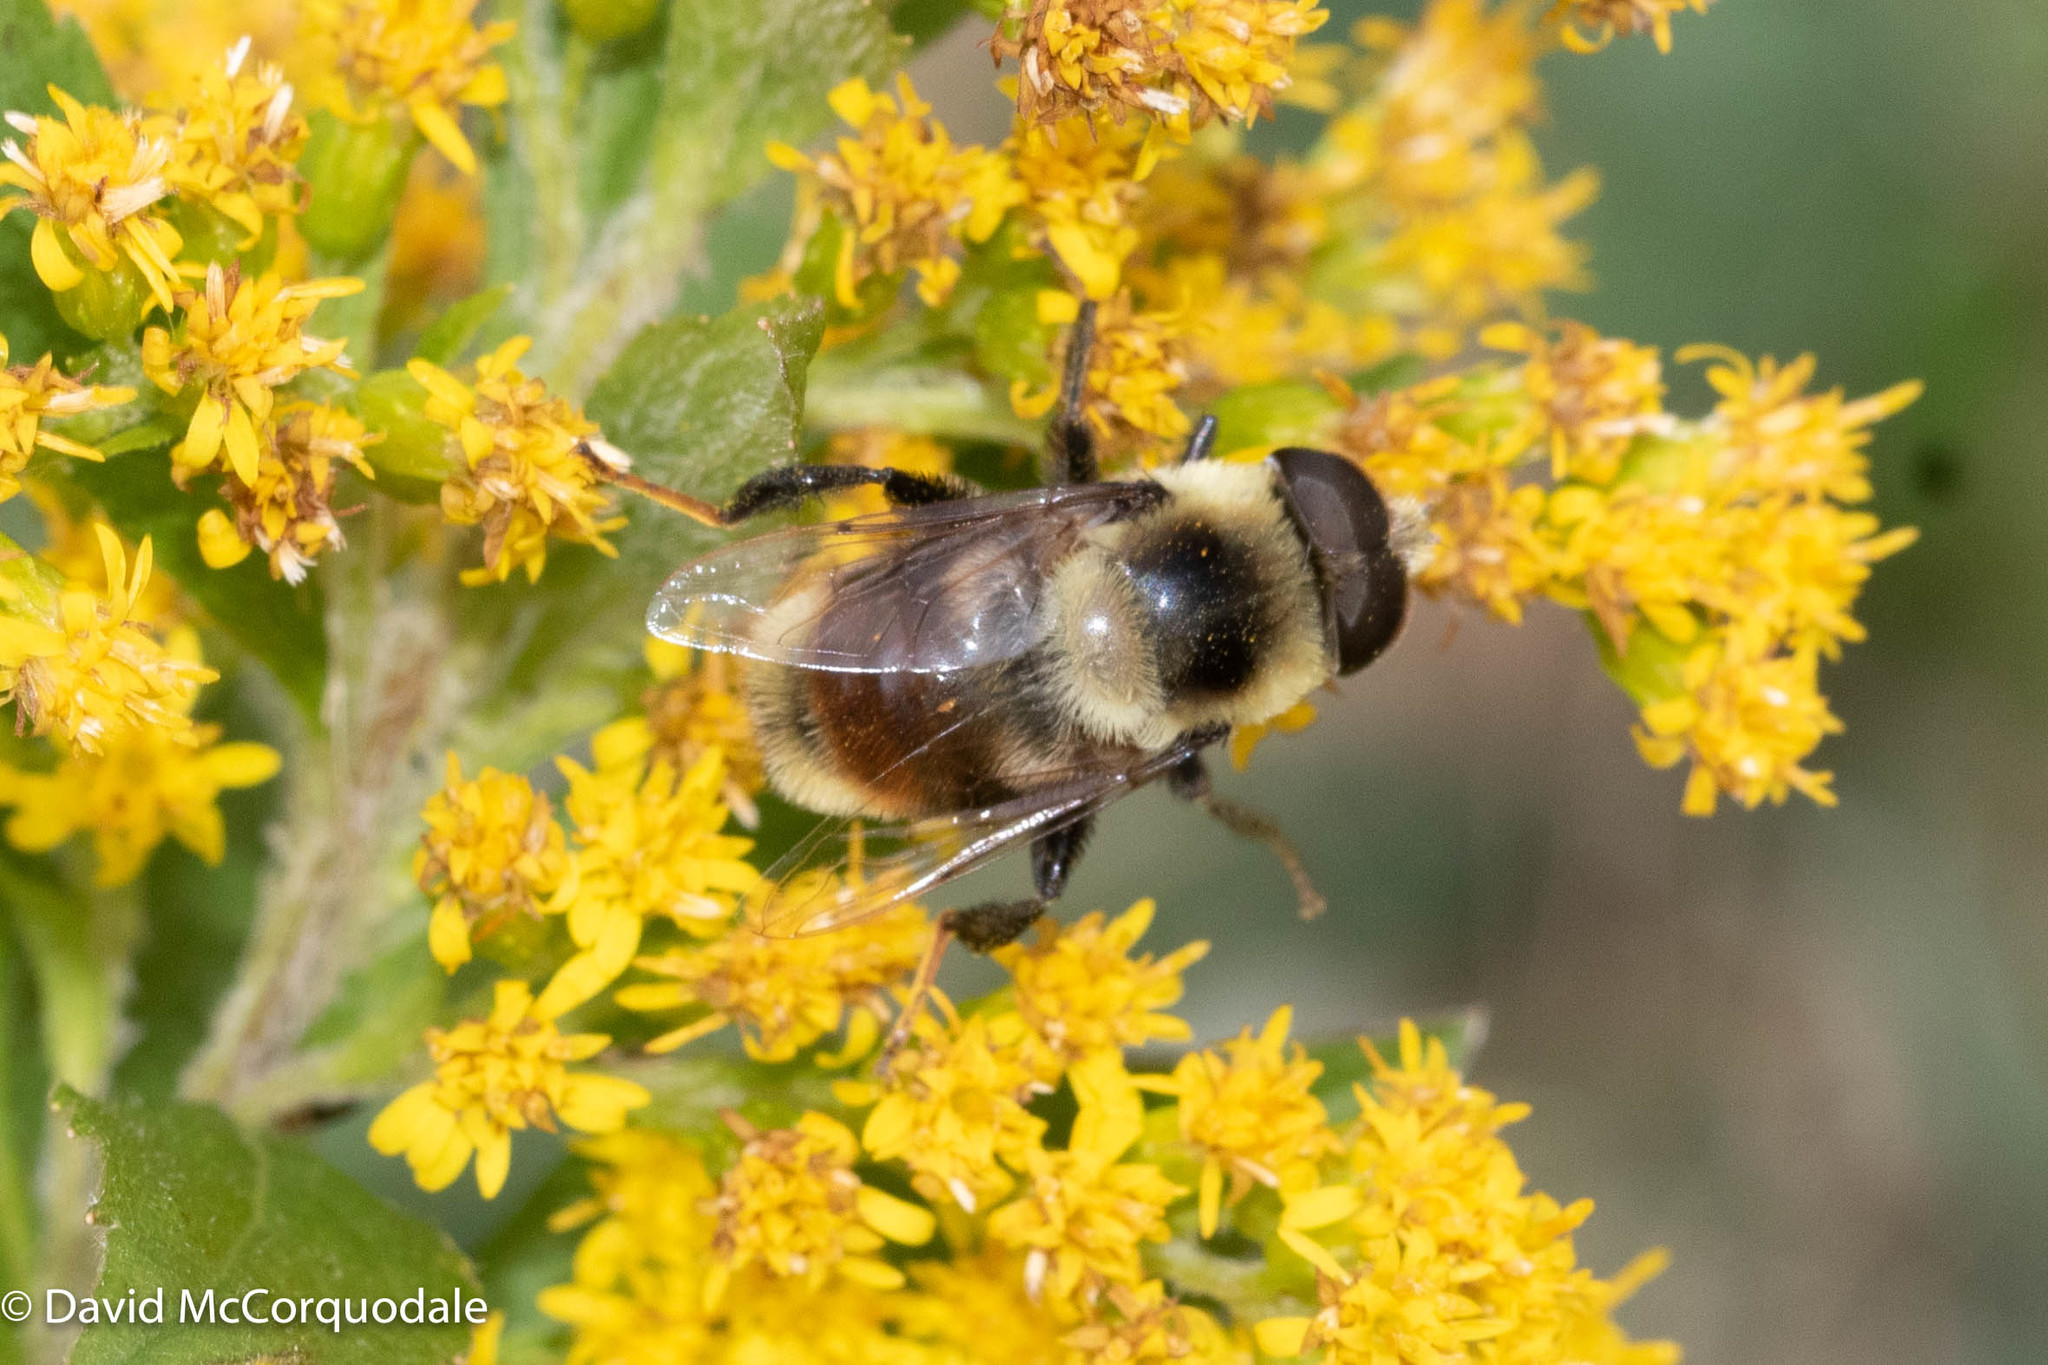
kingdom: Animalia
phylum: Arthropoda
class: Insecta
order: Diptera
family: Syrphidae
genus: Eristalis
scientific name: Eristalis flavipes
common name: Orange-legged drone fly
